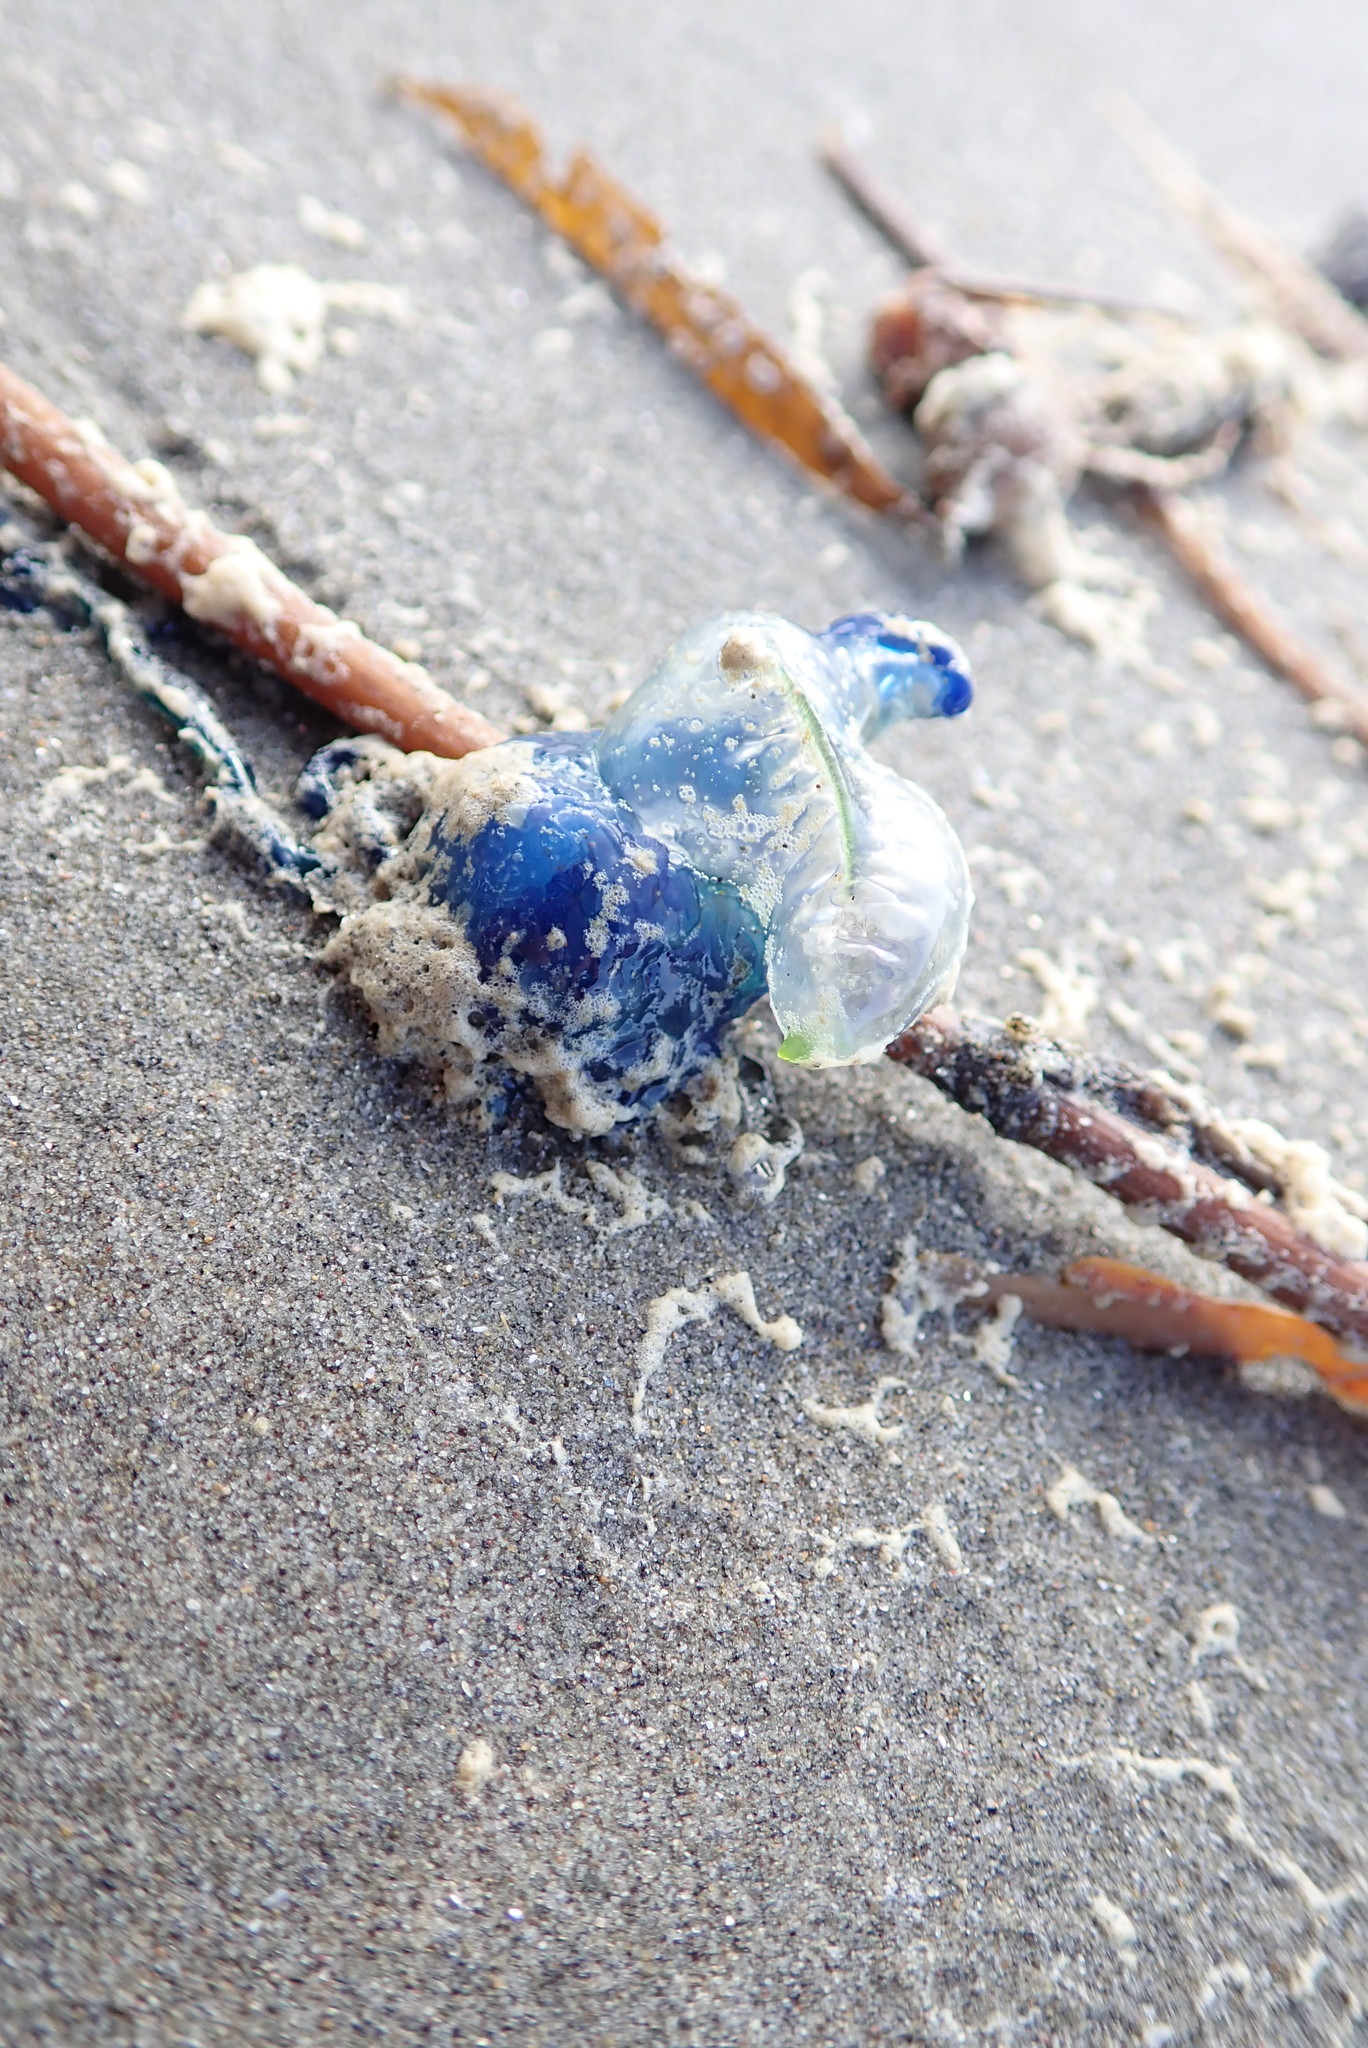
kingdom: Animalia
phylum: Cnidaria
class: Hydrozoa
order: Siphonophorae
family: Physaliidae
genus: Physalia
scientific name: Physalia physalis
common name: Portuguese man-of-war
